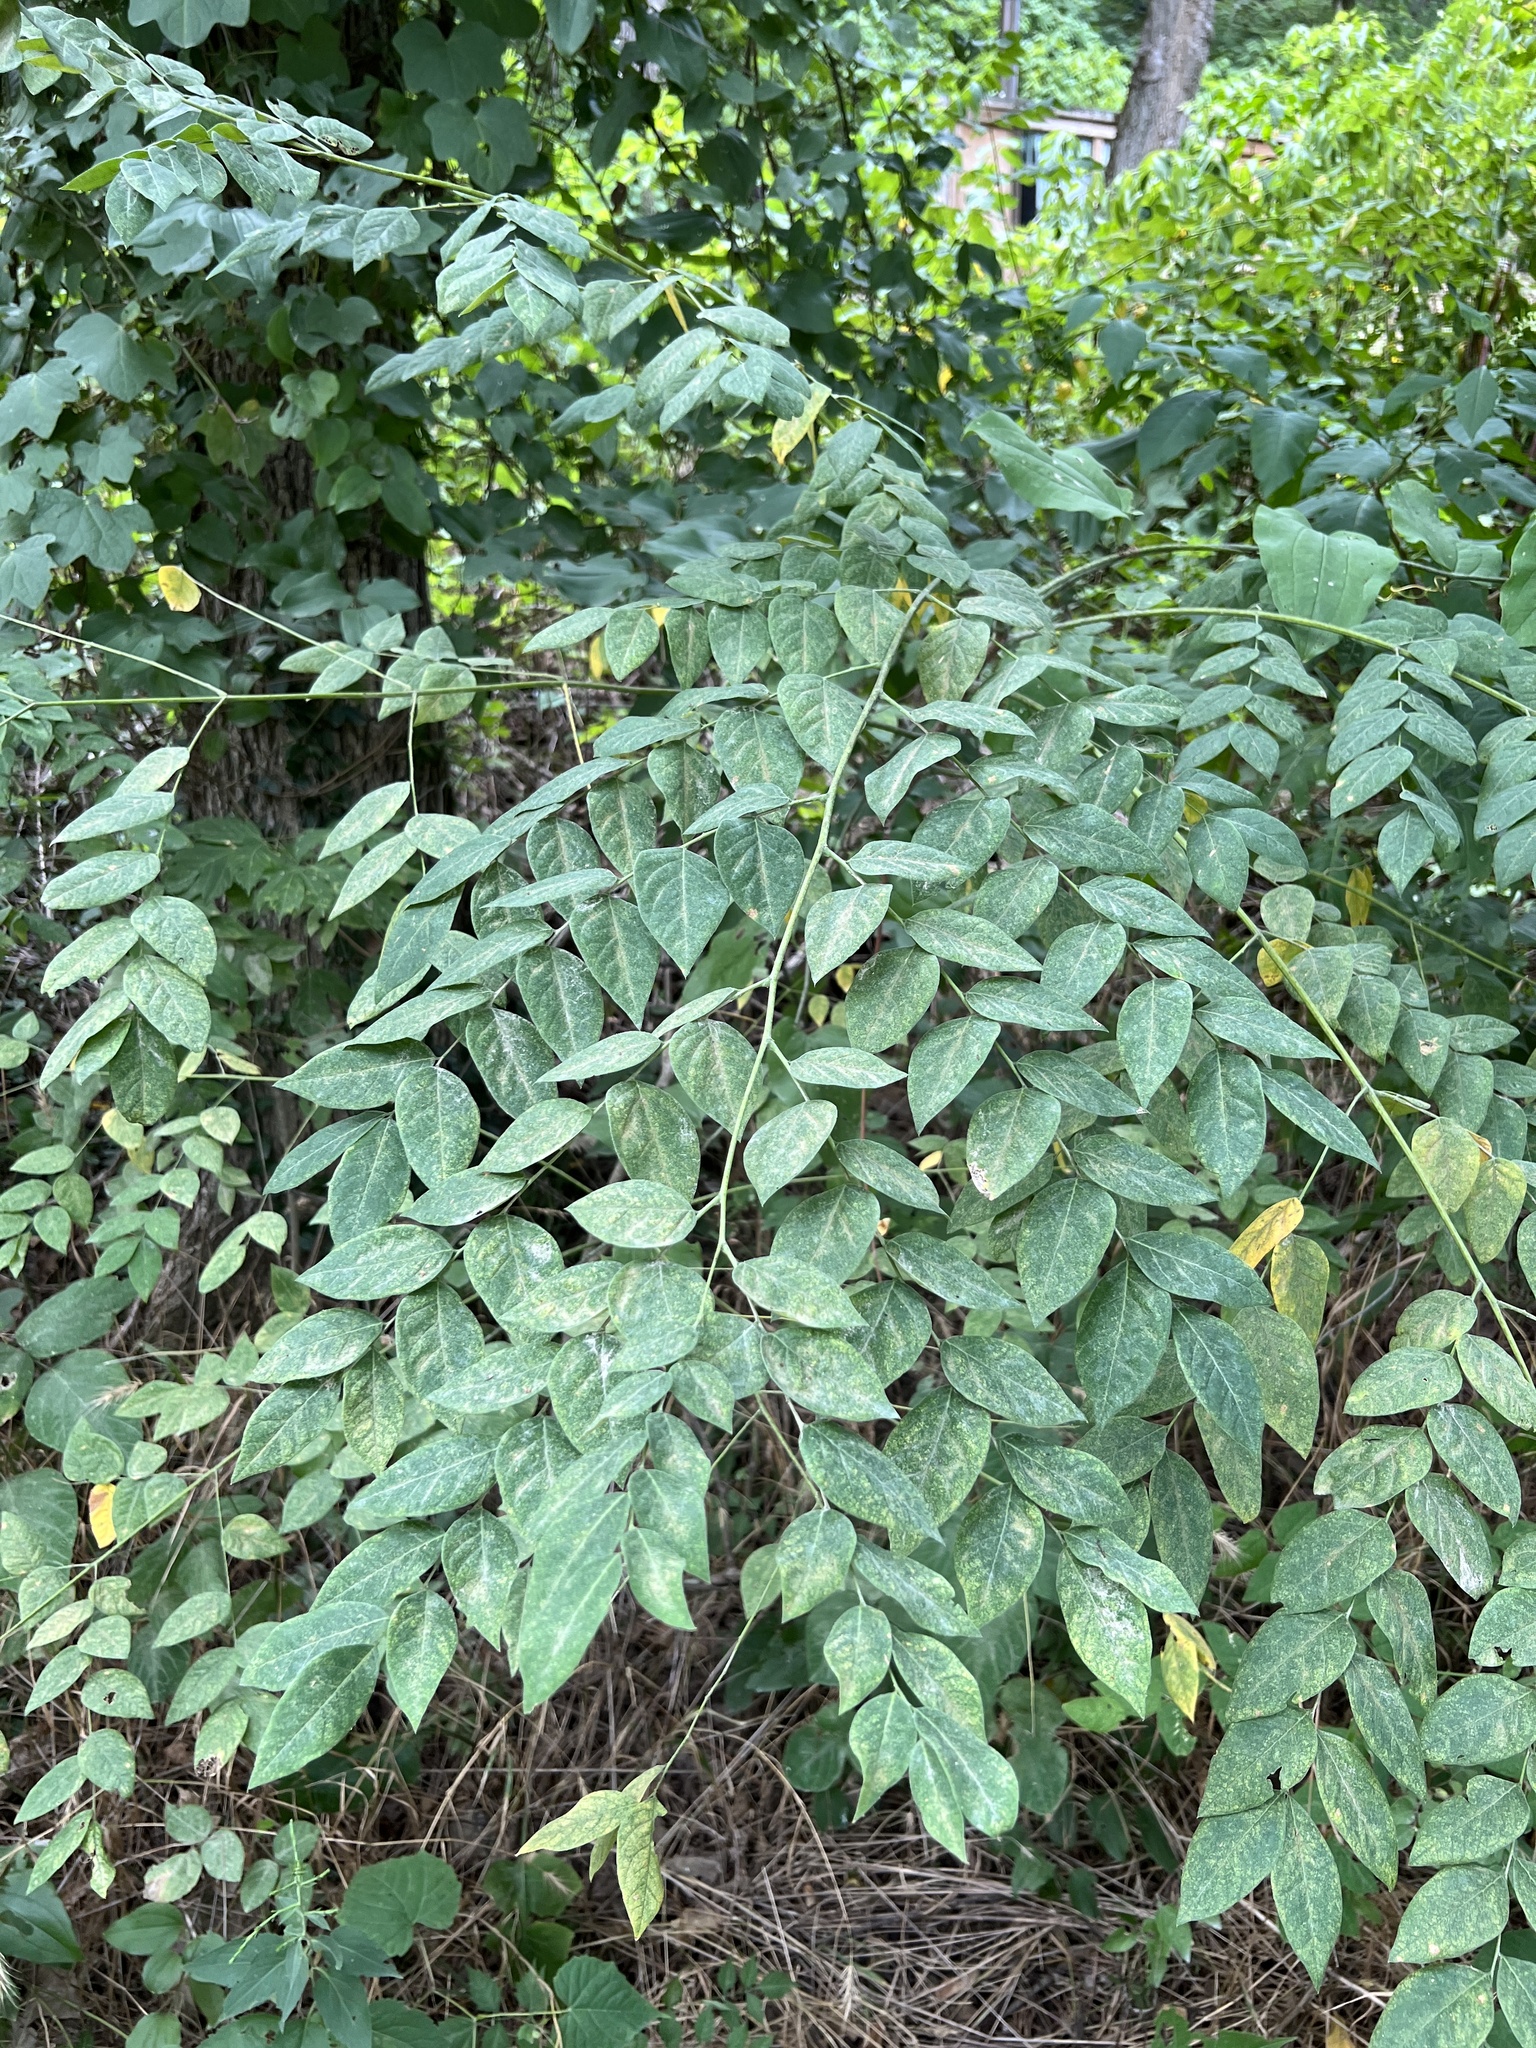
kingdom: Plantae
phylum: Tracheophyta
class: Magnoliopsida
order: Fabales
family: Fabaceae
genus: Gymnocladus
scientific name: Gymnocladus dioicus
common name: Kentucky coffee-tree
